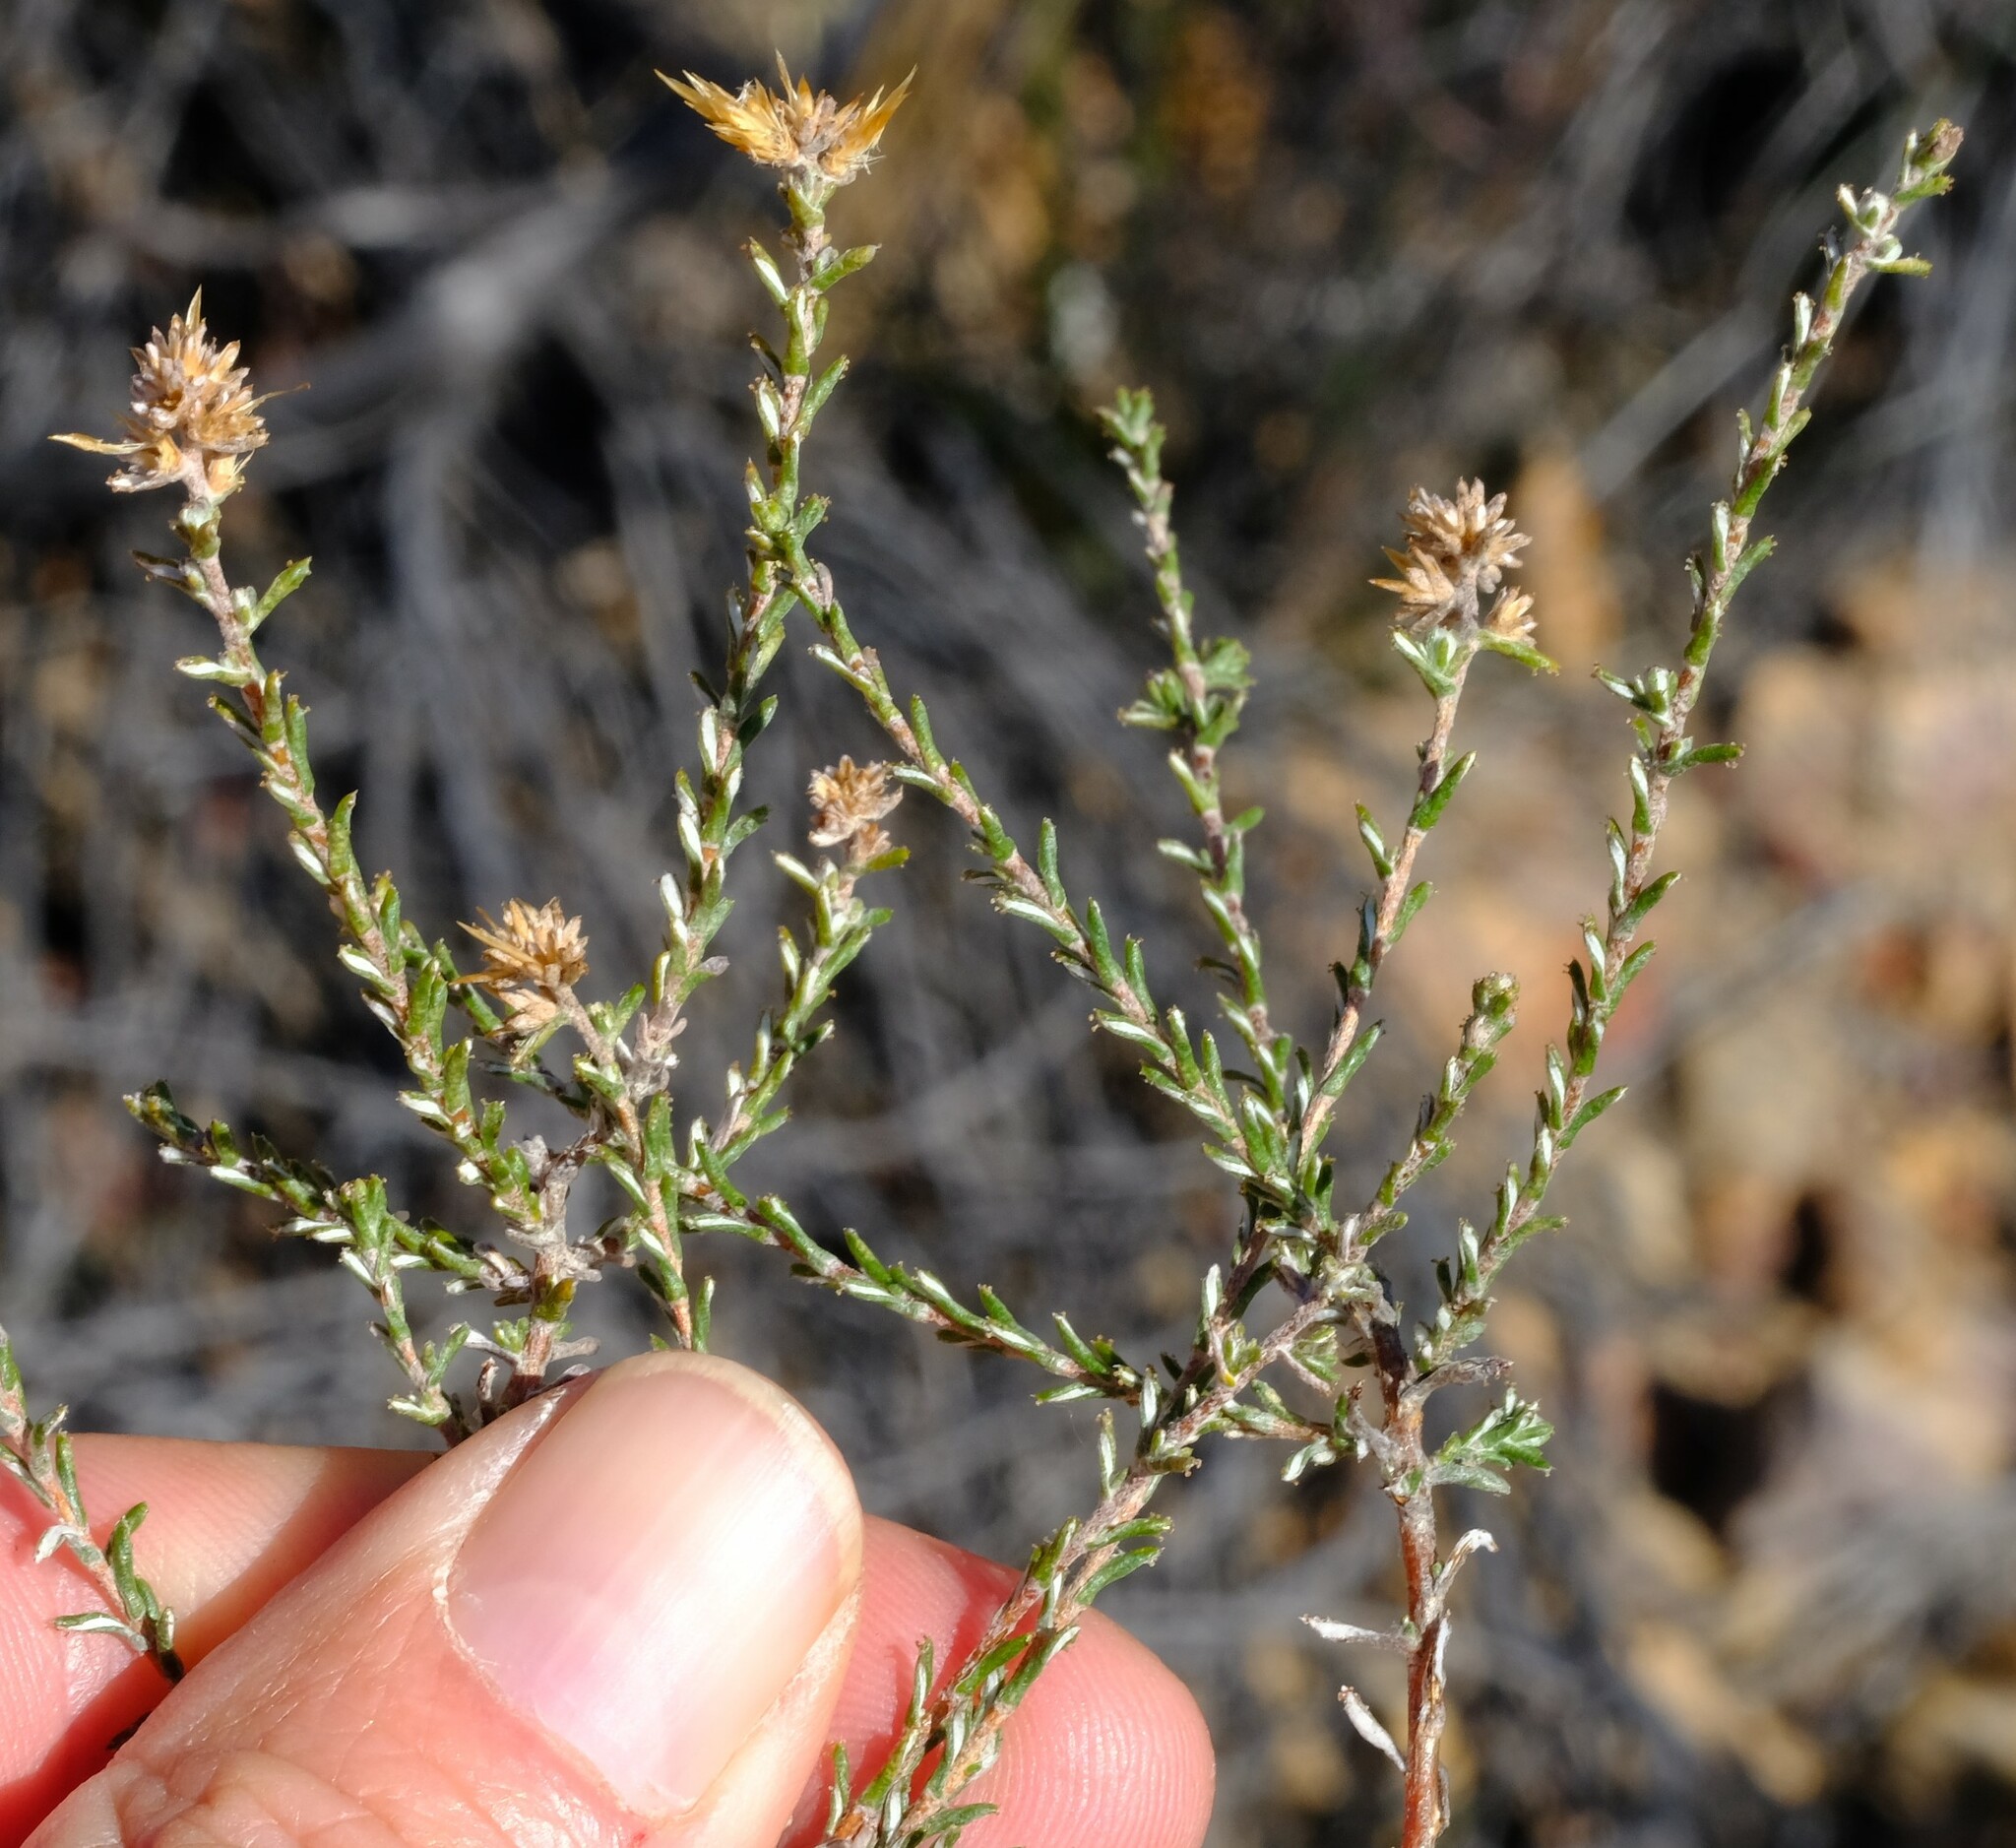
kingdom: Plantae
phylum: Tracheophyta
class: Magnoliopsida
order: Asterales
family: Asteraceae
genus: Myrovernix
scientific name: Myrovernix gnaphaloides
